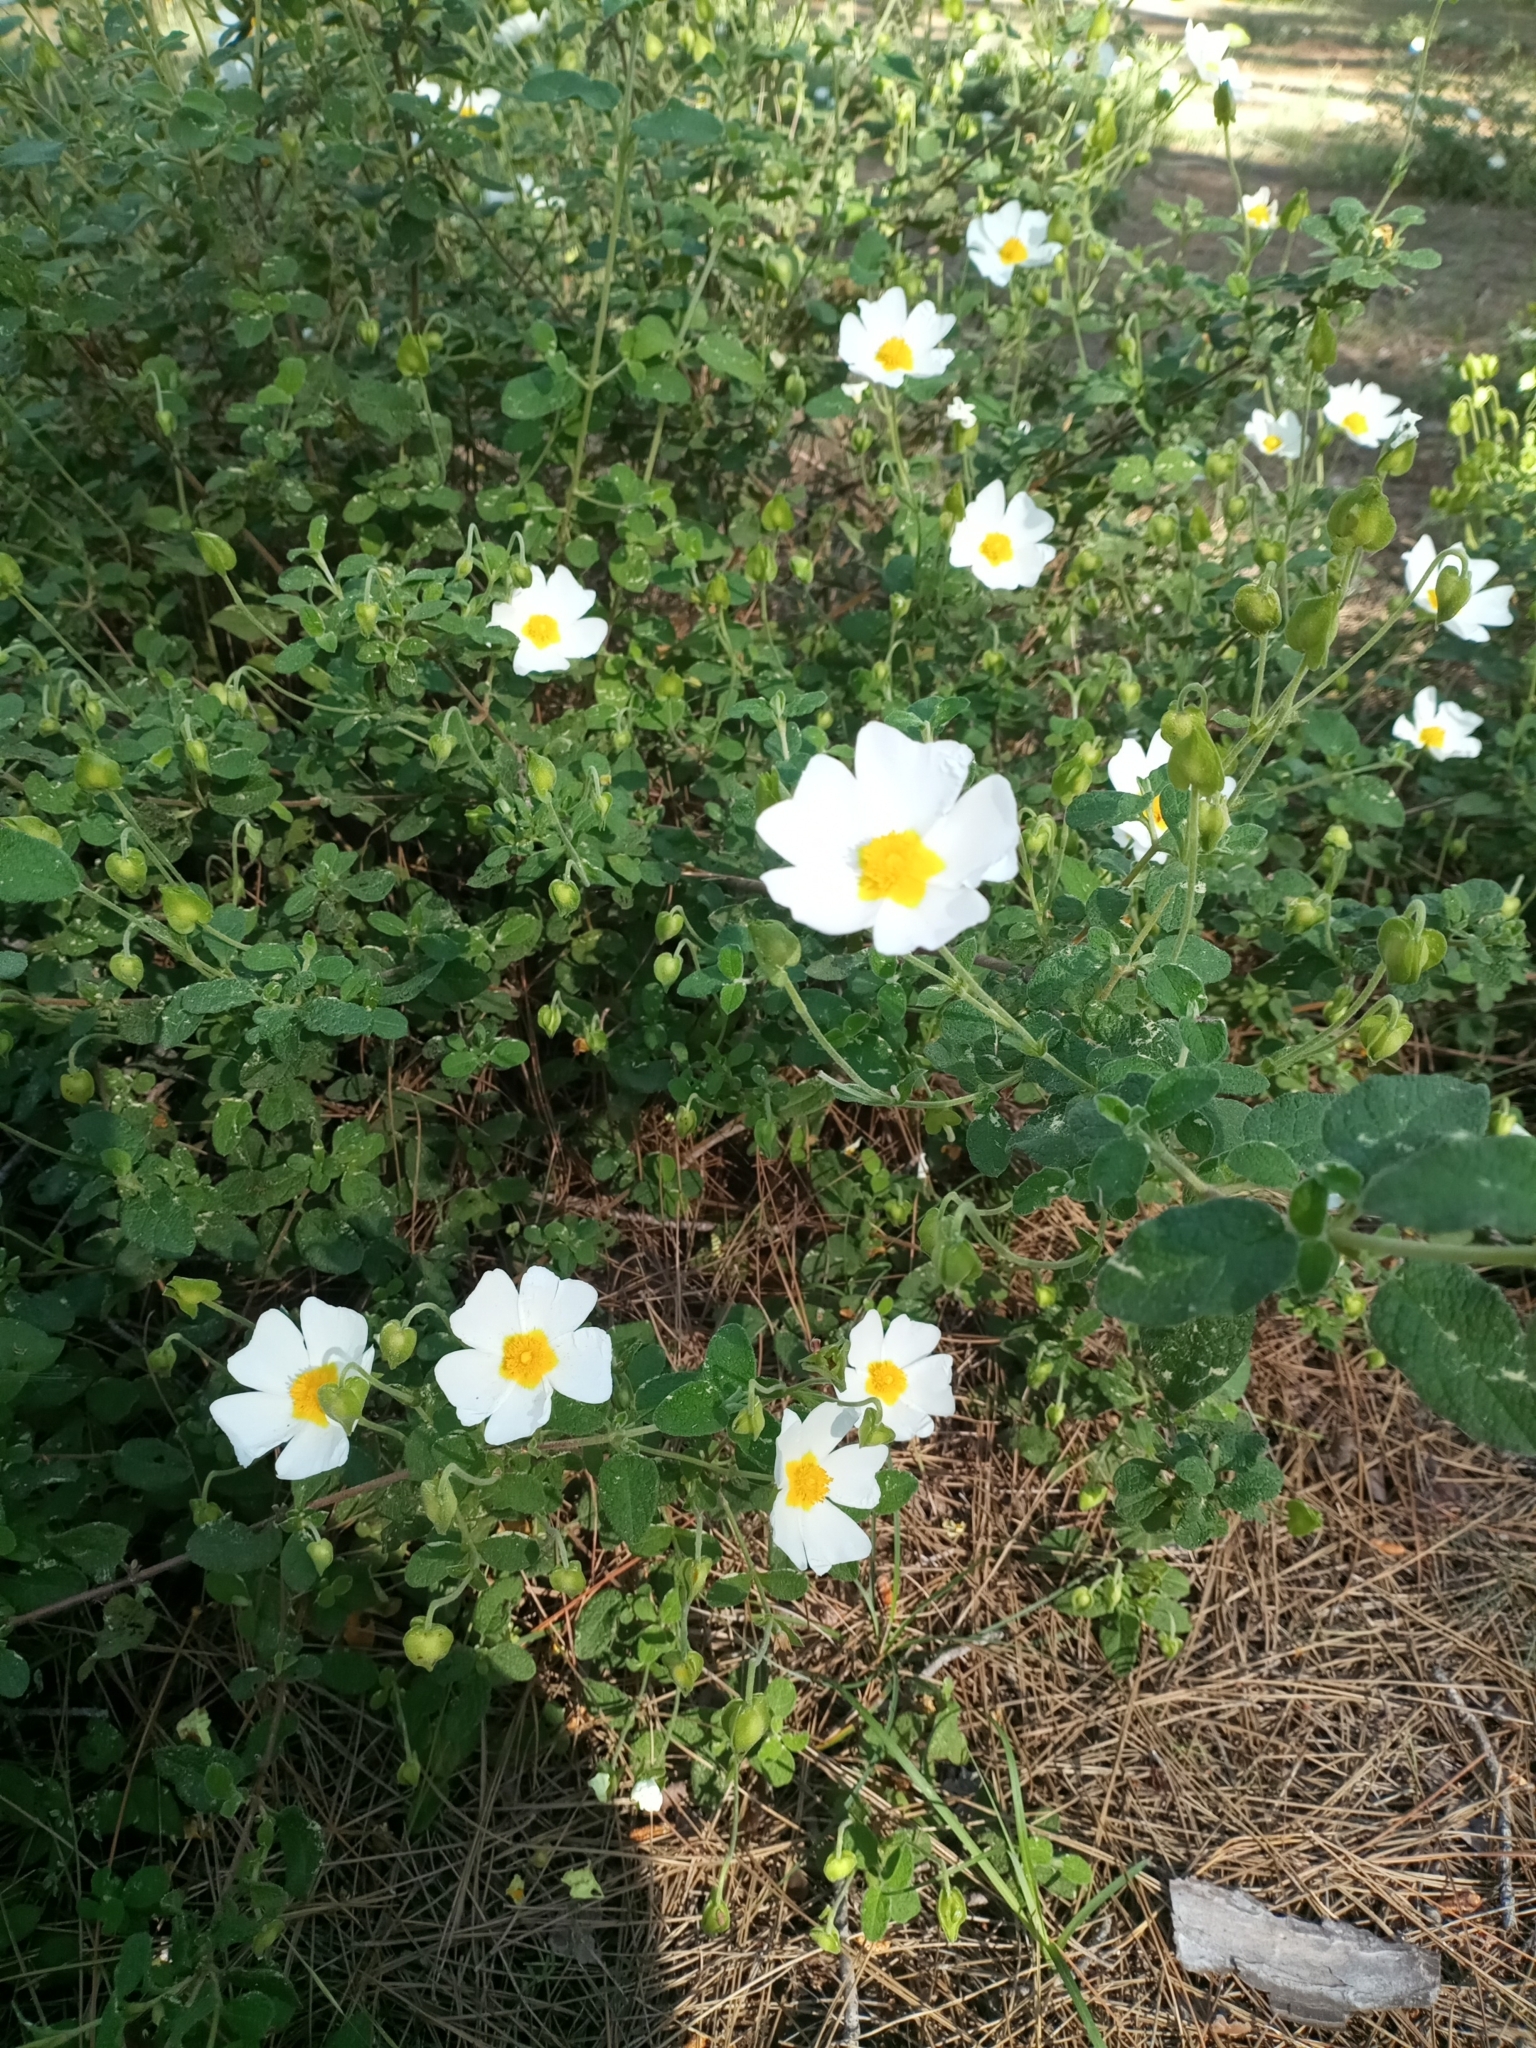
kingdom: Plantae
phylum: Tracheophyta
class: Magnoliopsida
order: Malvales
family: Cistaceae
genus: Cistus
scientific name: Cistus salviifolius
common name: Salvia cistus
